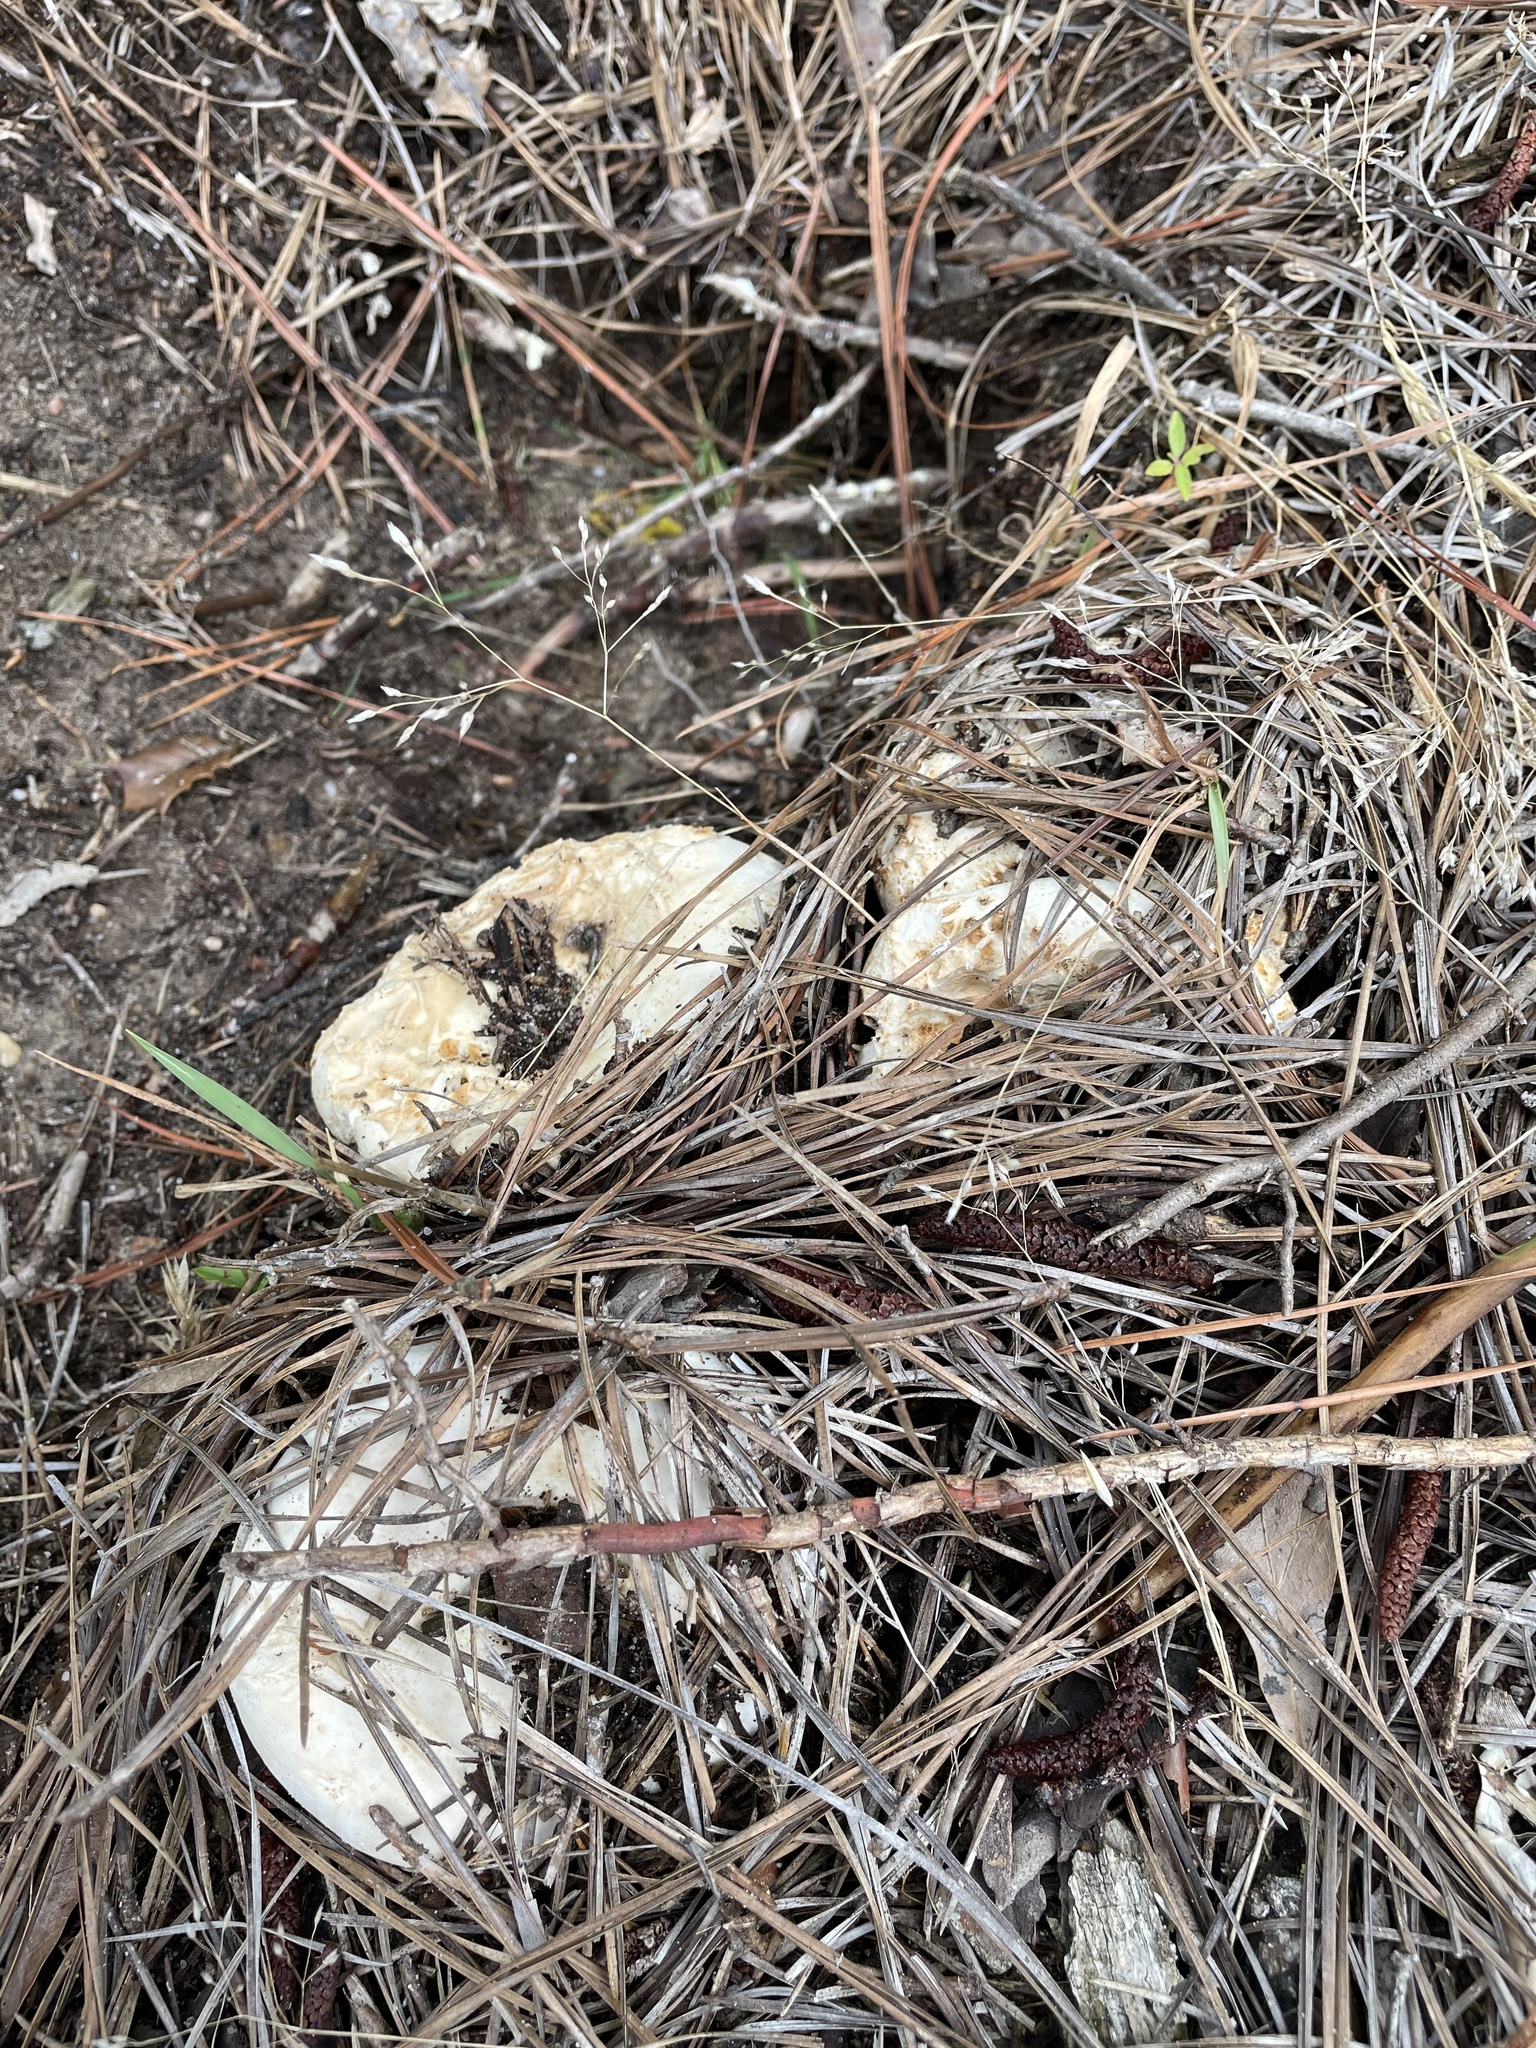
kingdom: Fungi
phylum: Basidiomycota
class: Agaricomycetes
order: Russulales
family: Russulaceae
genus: Russula
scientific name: Russula vesicatoria
